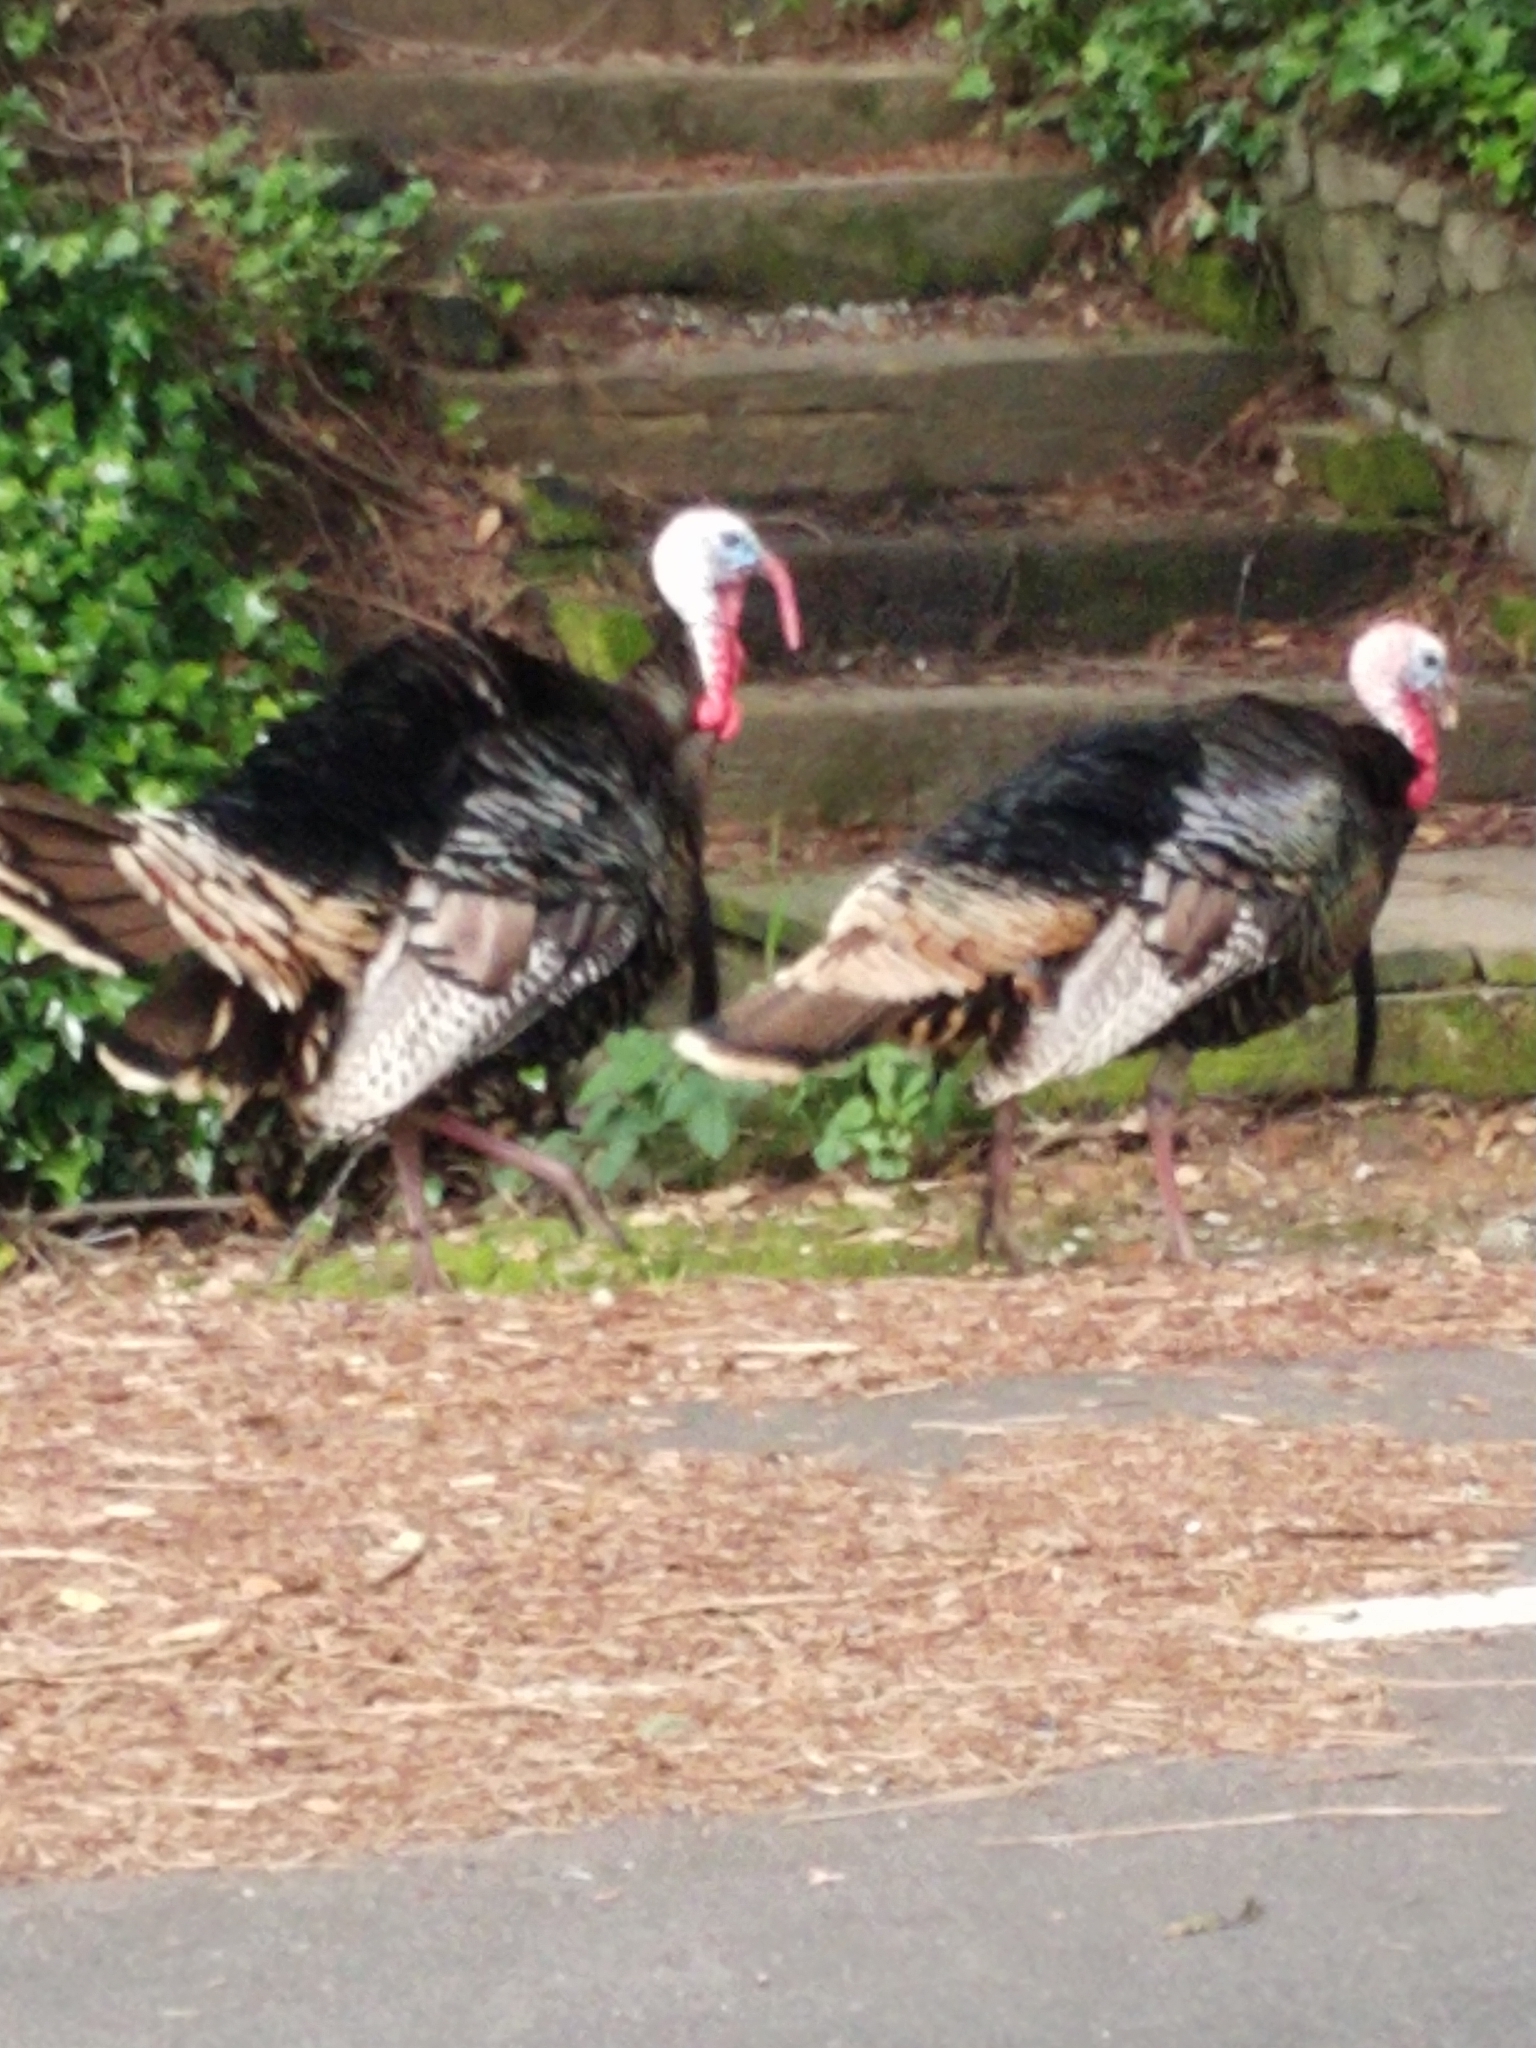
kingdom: Animalia
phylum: Chordata
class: Aves
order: Galliformes
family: Phasianidae
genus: Meleagris
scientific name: Meleagris gallopavo
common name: Wild turkey
